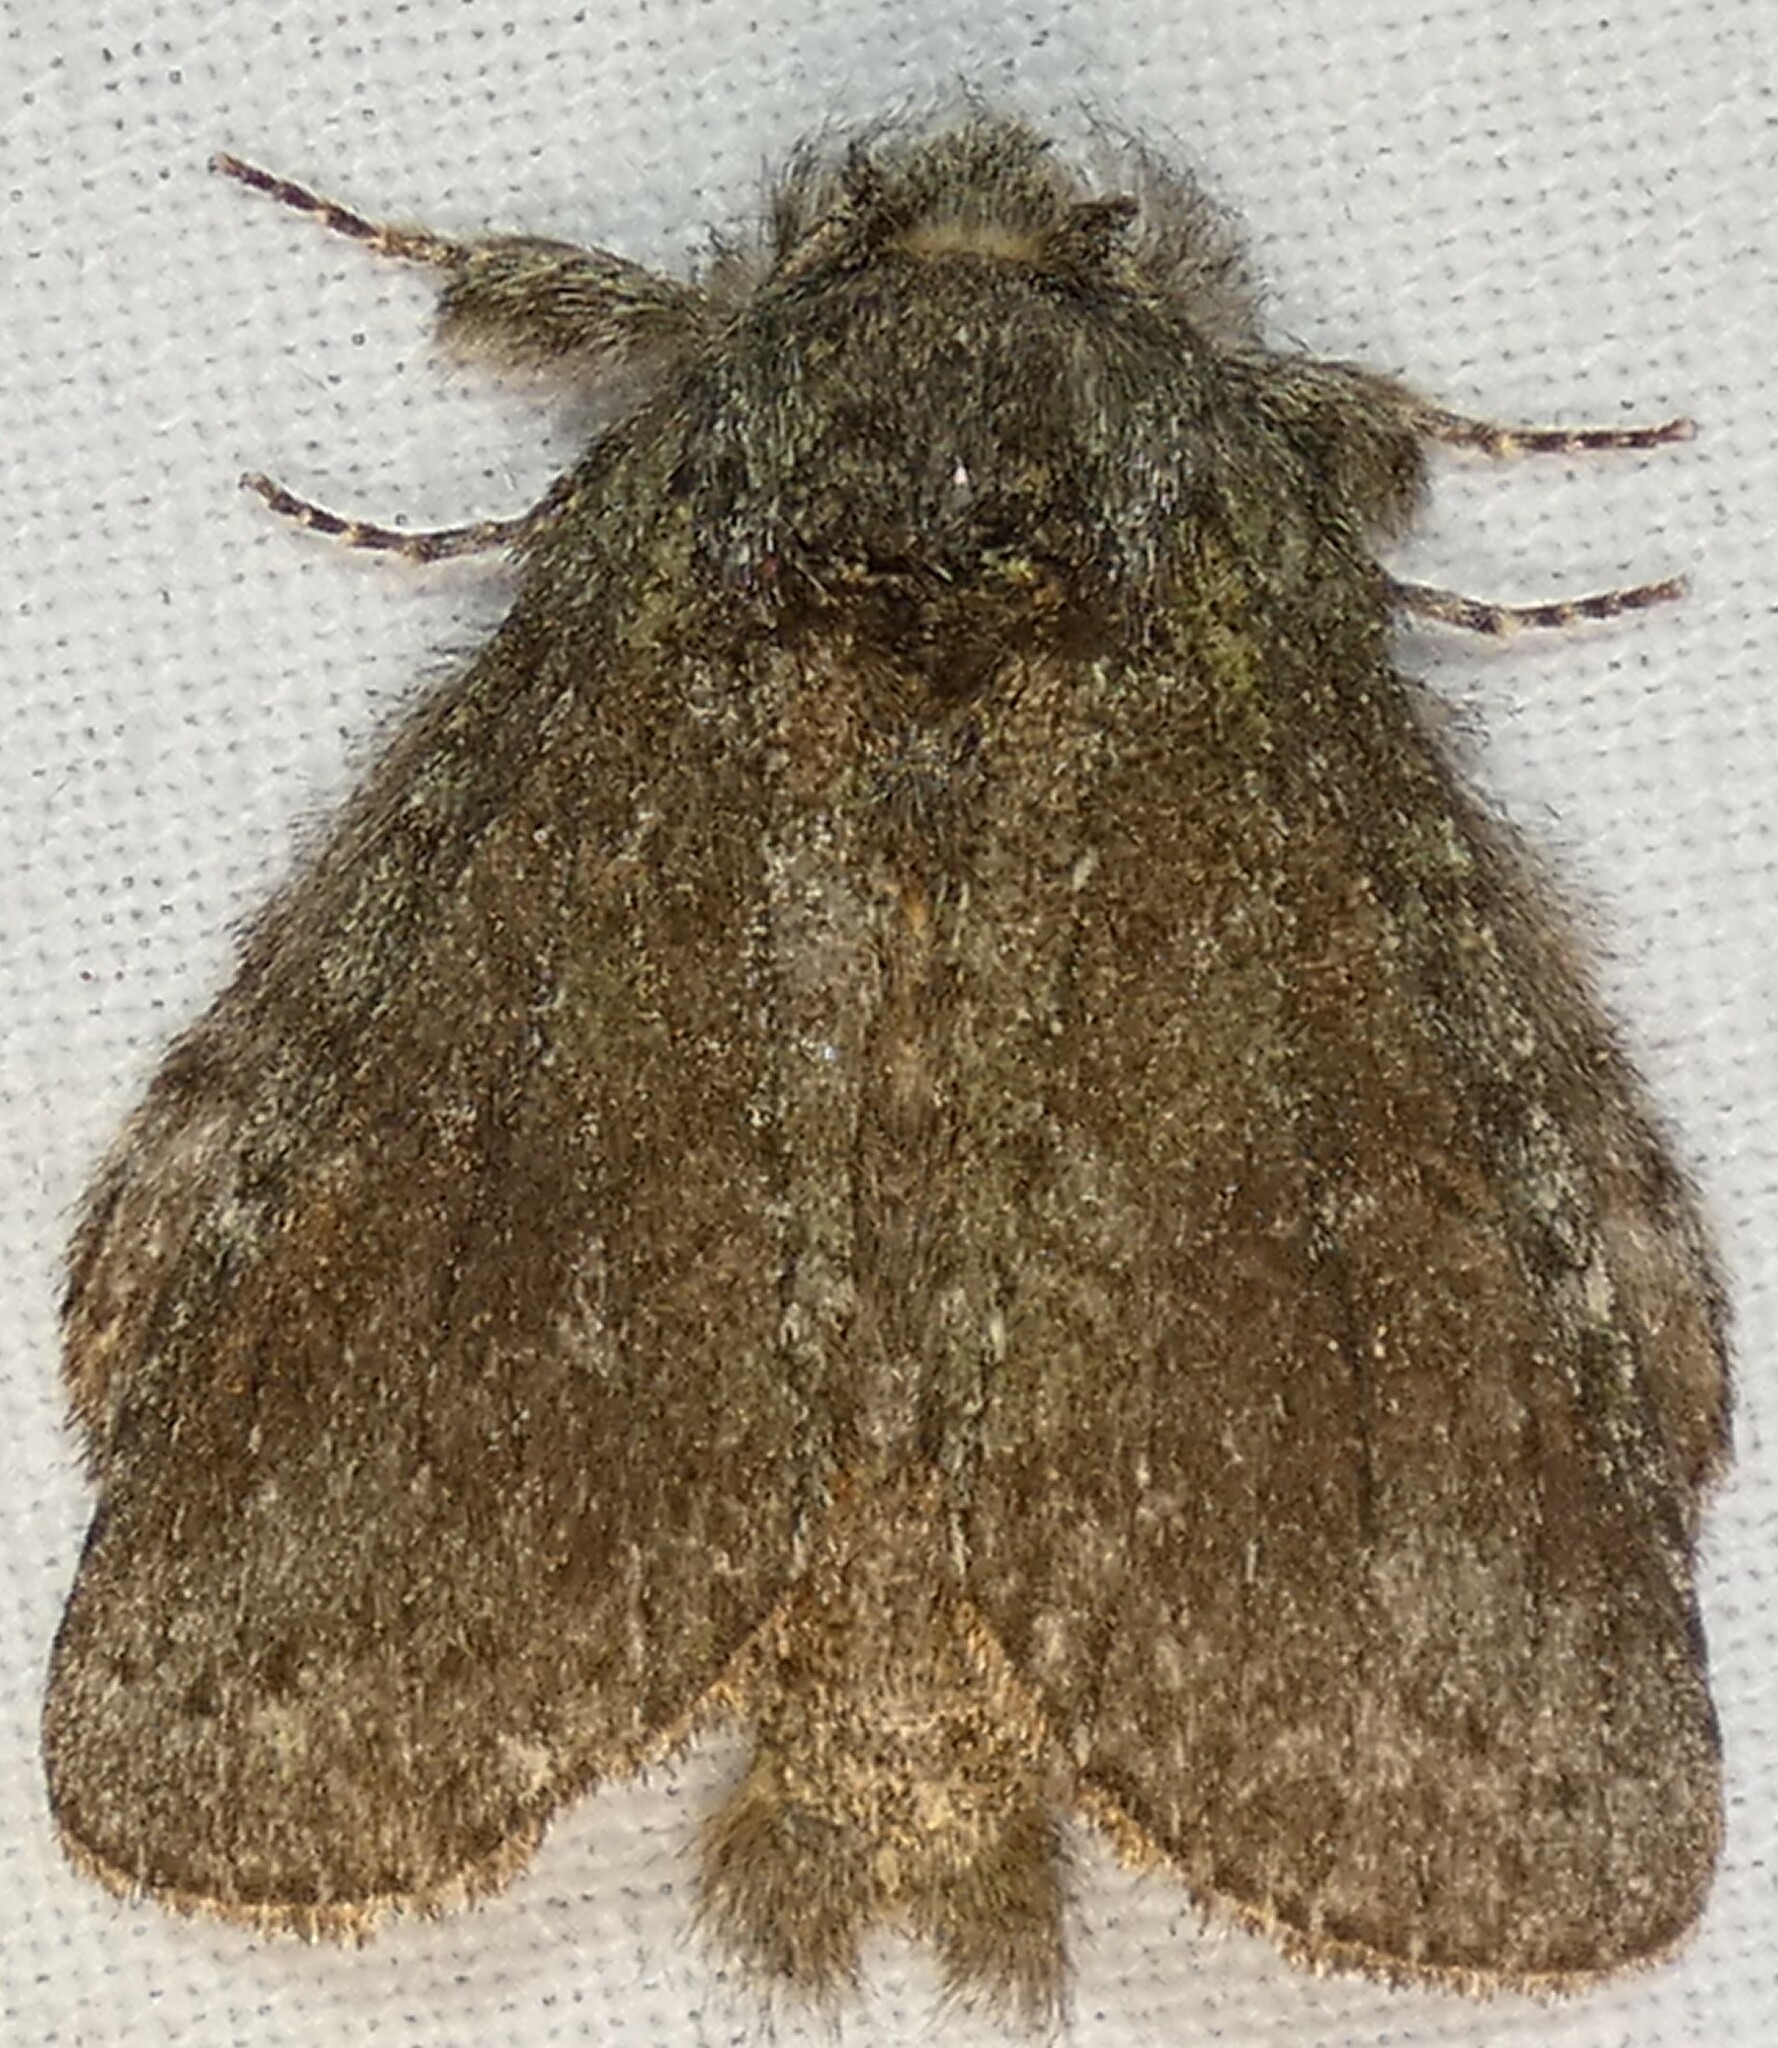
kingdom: Animalia
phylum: Arthropoda
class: Insecta
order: Lepidoptera
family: Notodontidae
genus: Disphragis
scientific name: Disphragis Cecrita guttivitta
